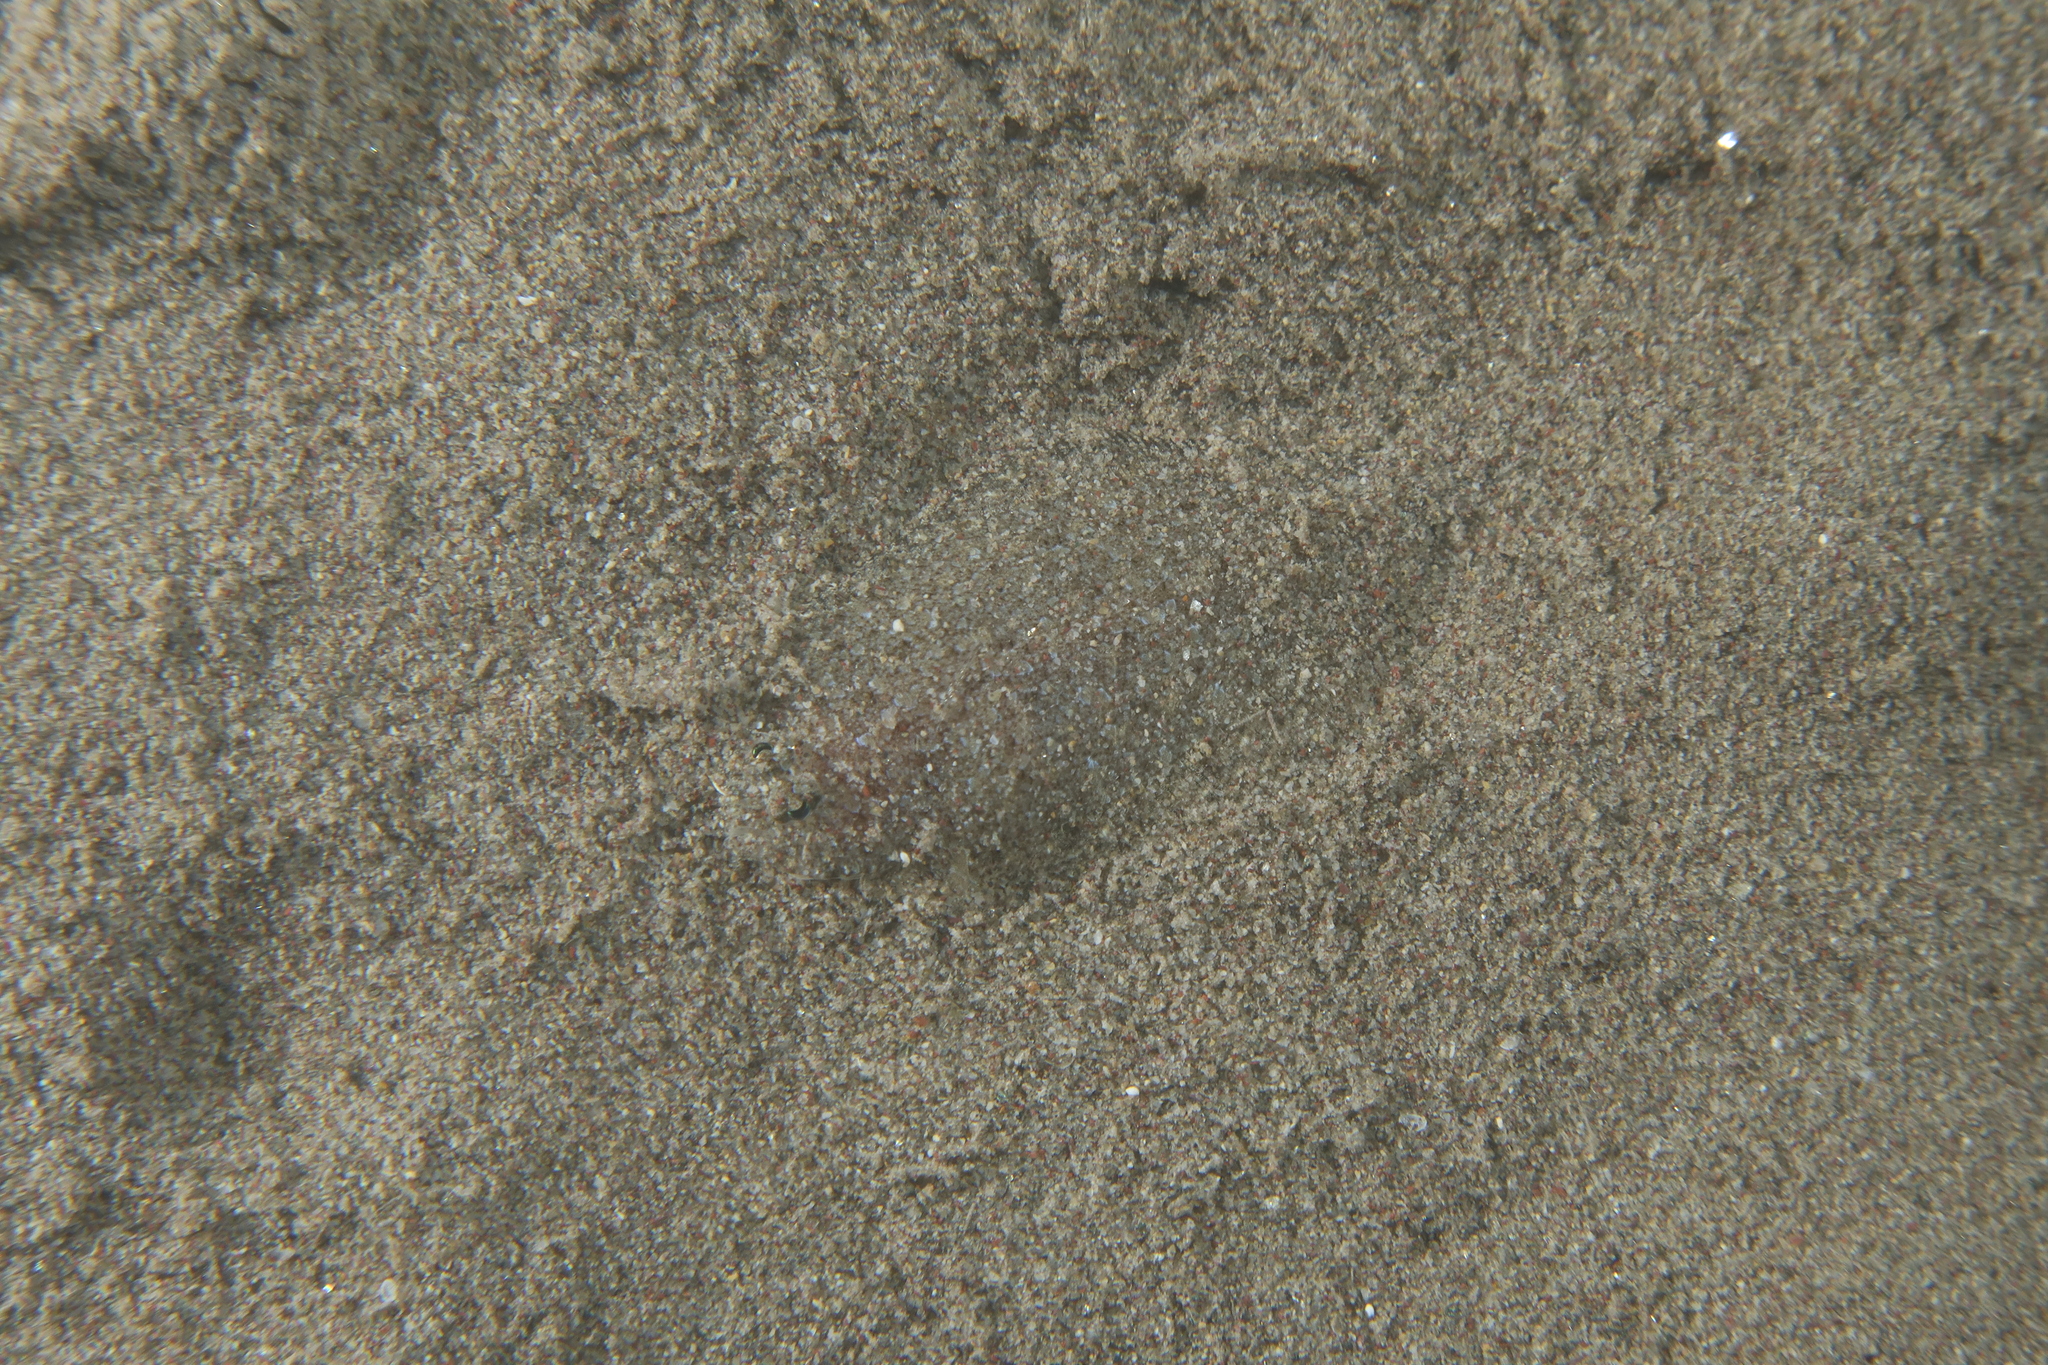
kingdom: Animalia
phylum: Chordata
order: Pleuronectiformes
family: Bothidae
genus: Arnoglossus
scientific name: Arnoglossus grohmanni
